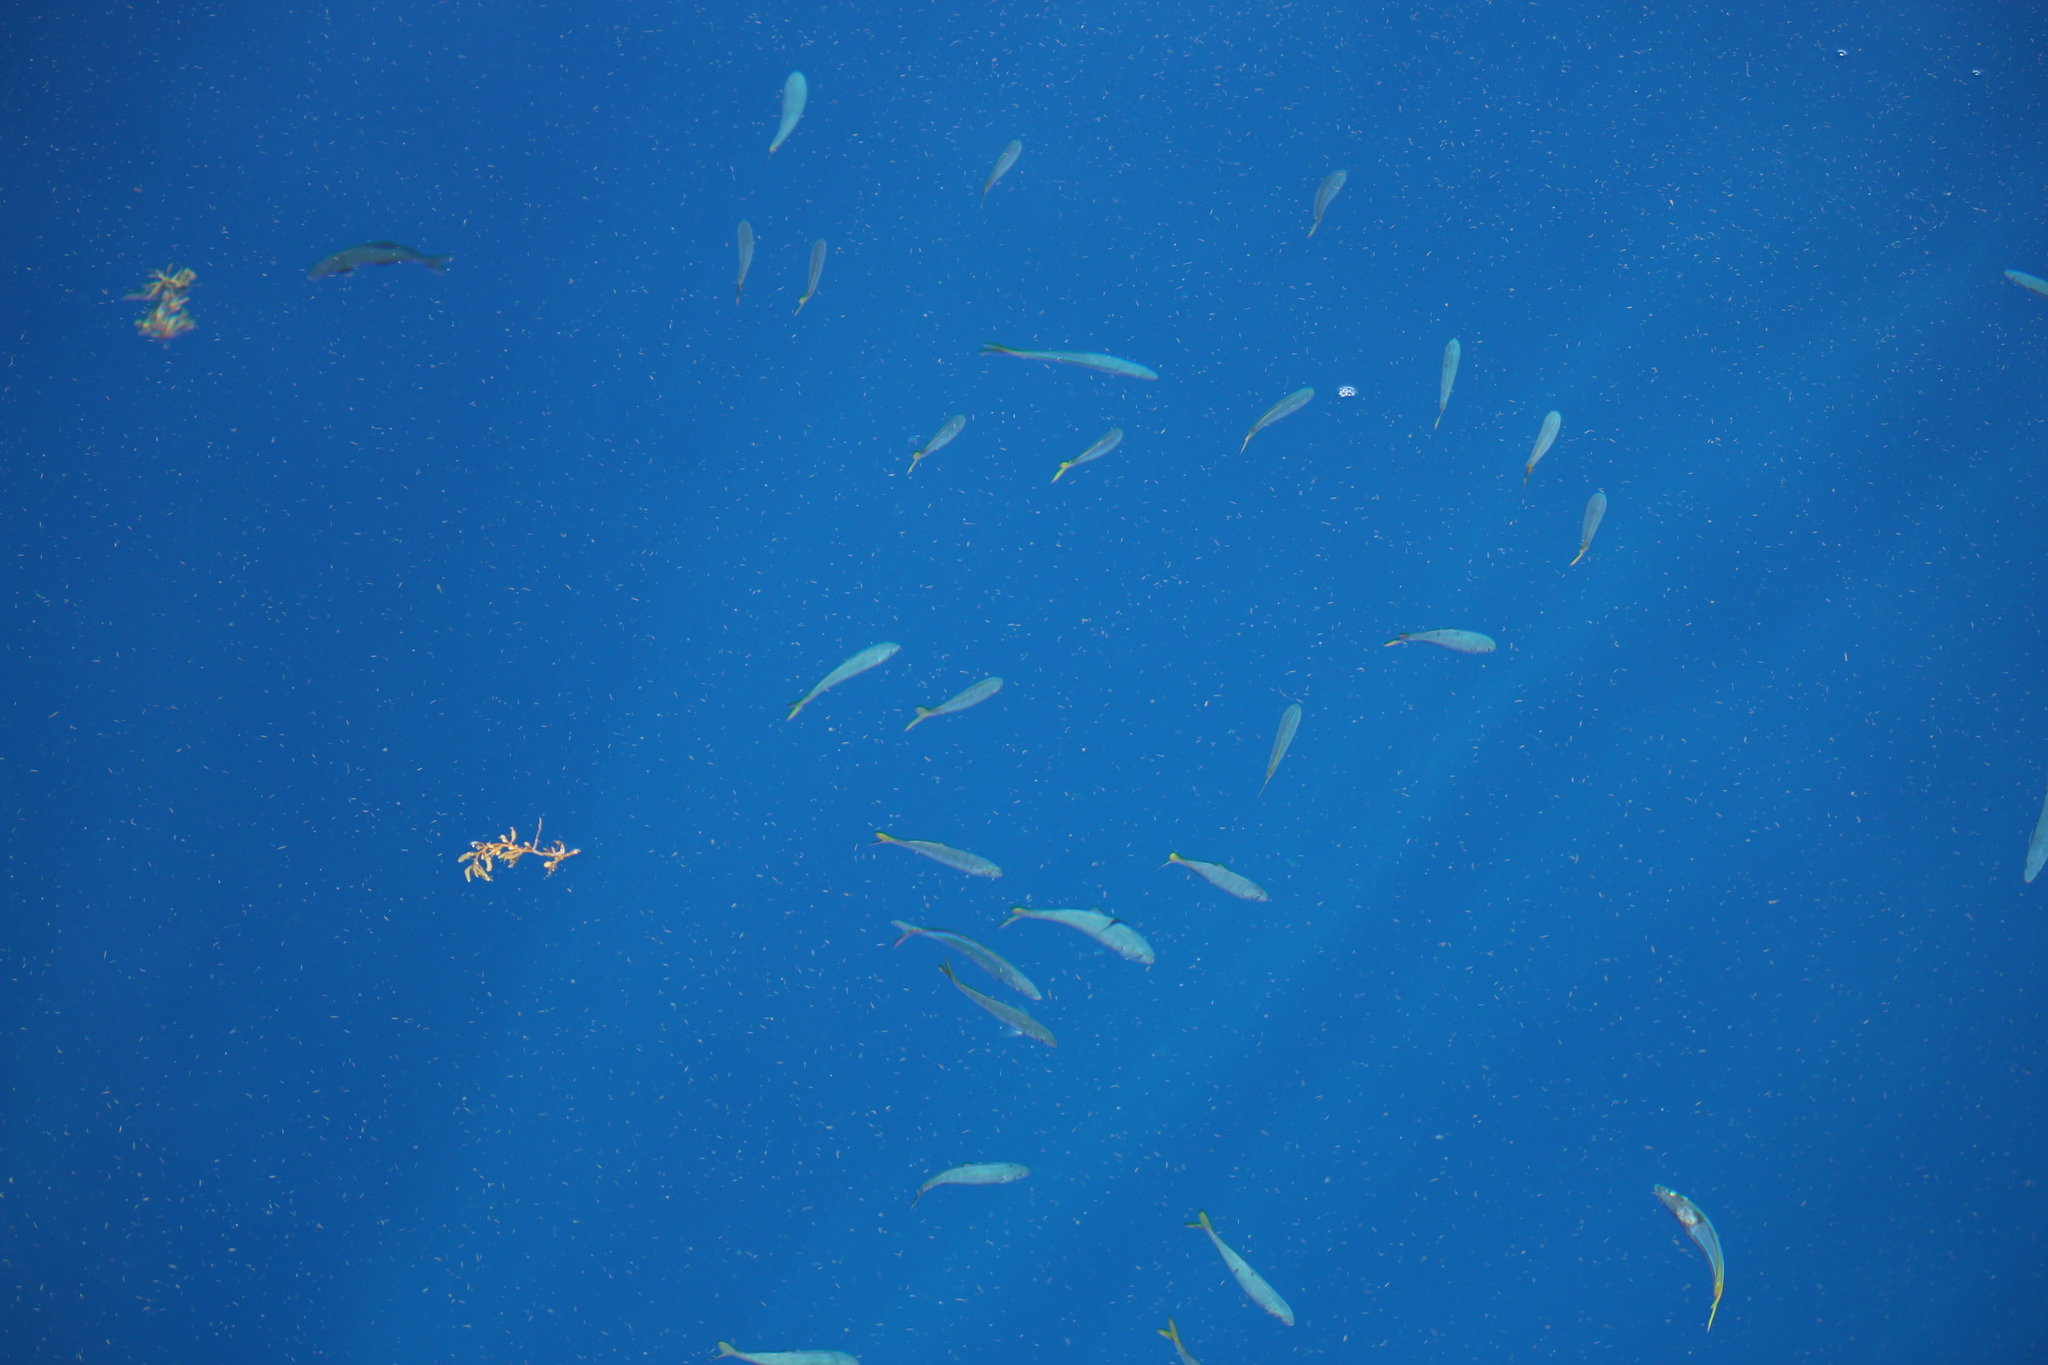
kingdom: Animalia
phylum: Chordata
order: Perciformes
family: Carangidae
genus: Decapterus
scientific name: Decapterus macarellus
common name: Mackerel scad
